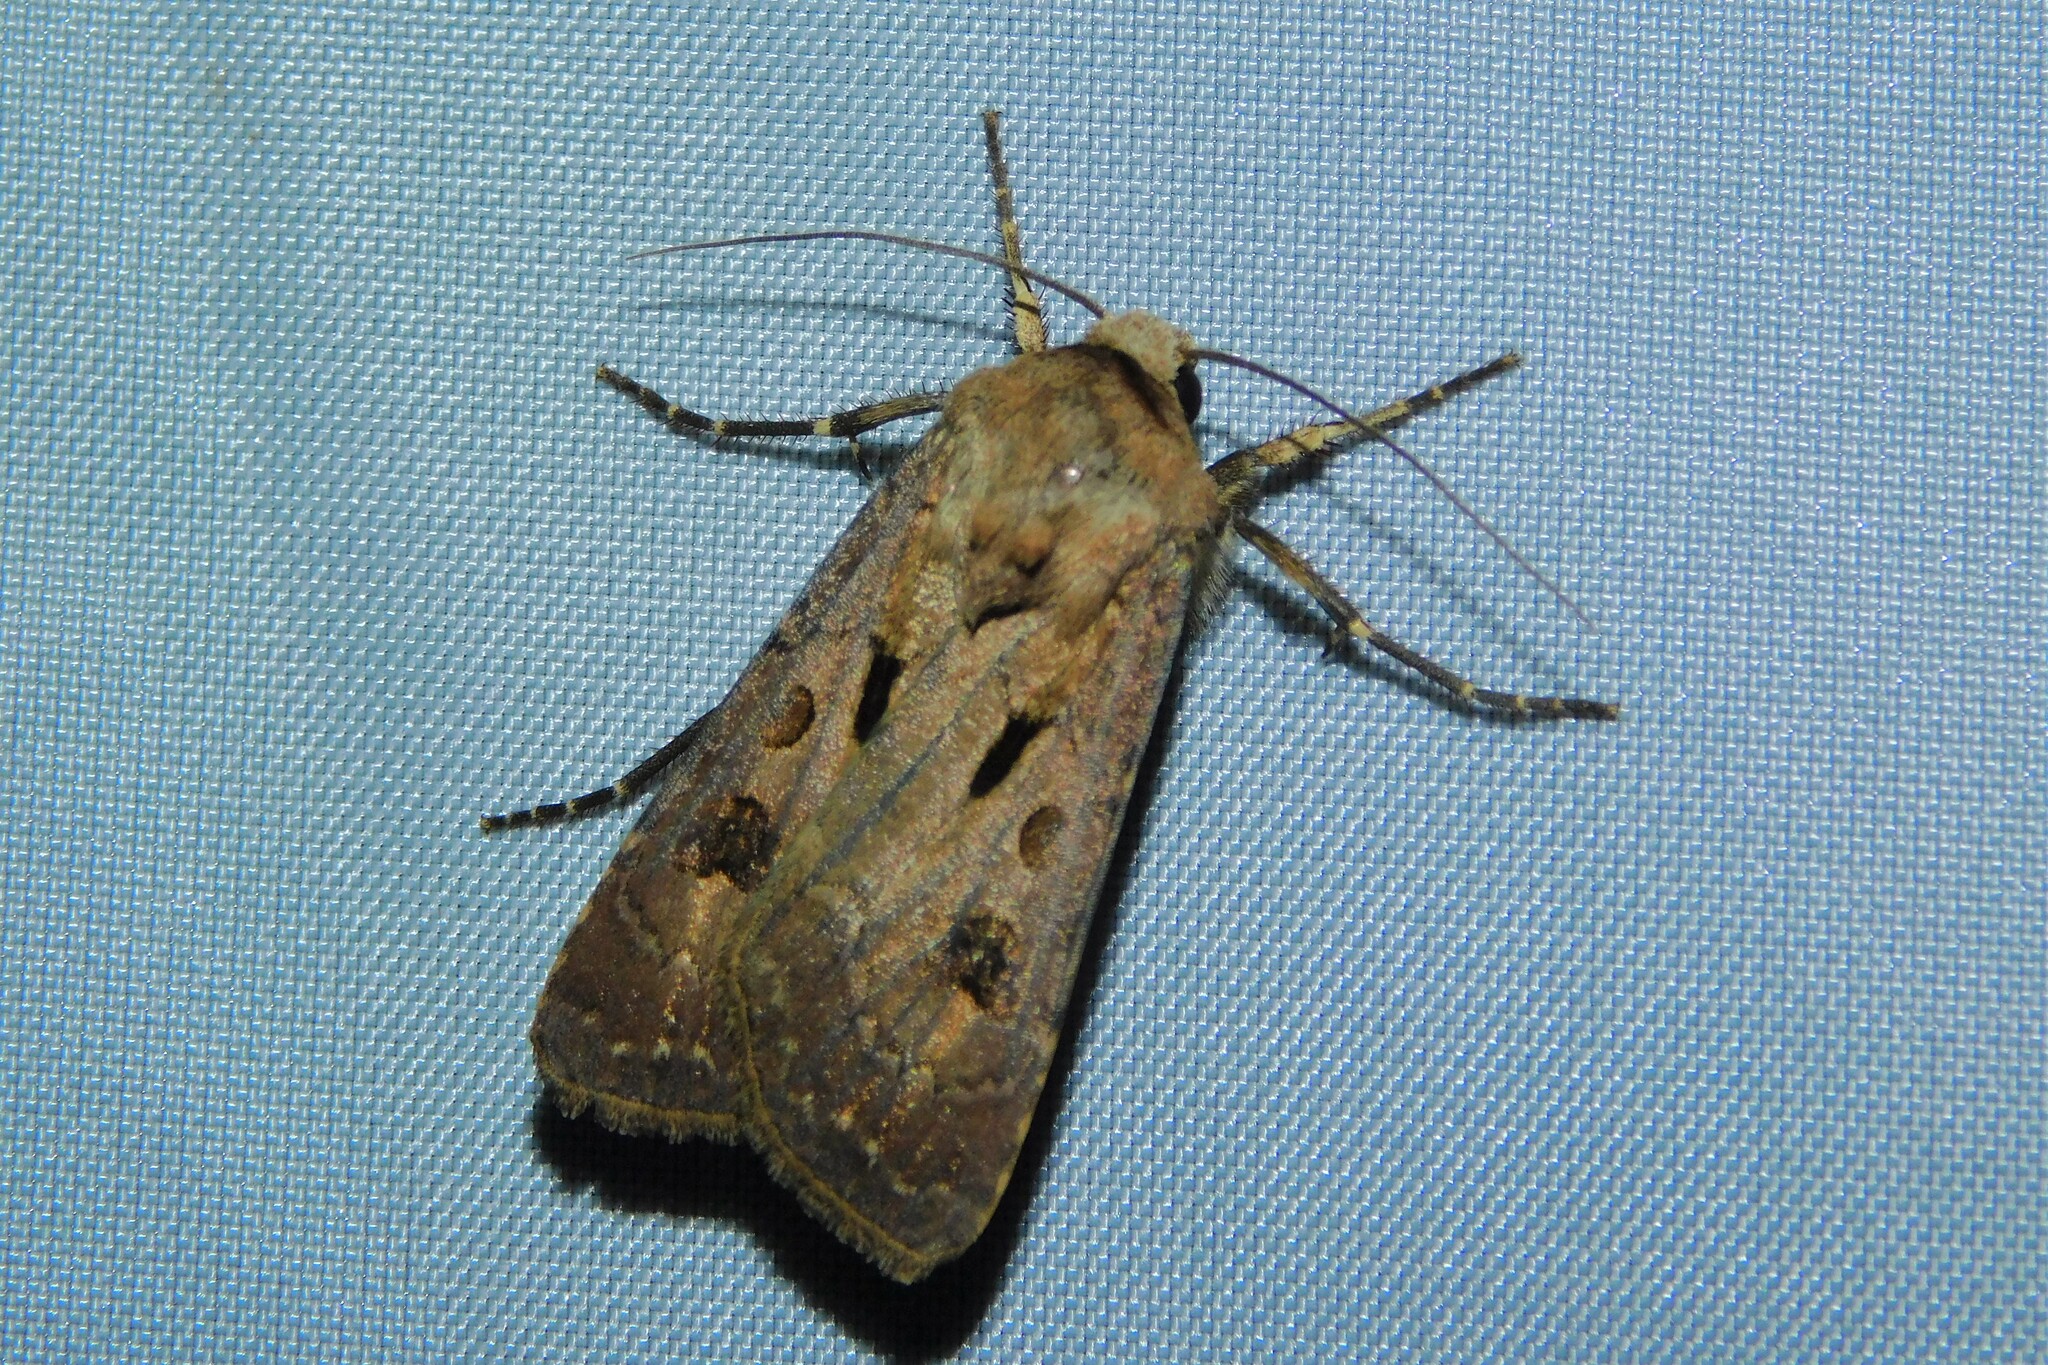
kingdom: Animalia
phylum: Arthropoda
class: Insecta
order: Lepidoptera
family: Noctuidae
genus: Agrotis
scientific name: Agrotis exclamationis
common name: Heart and dart
